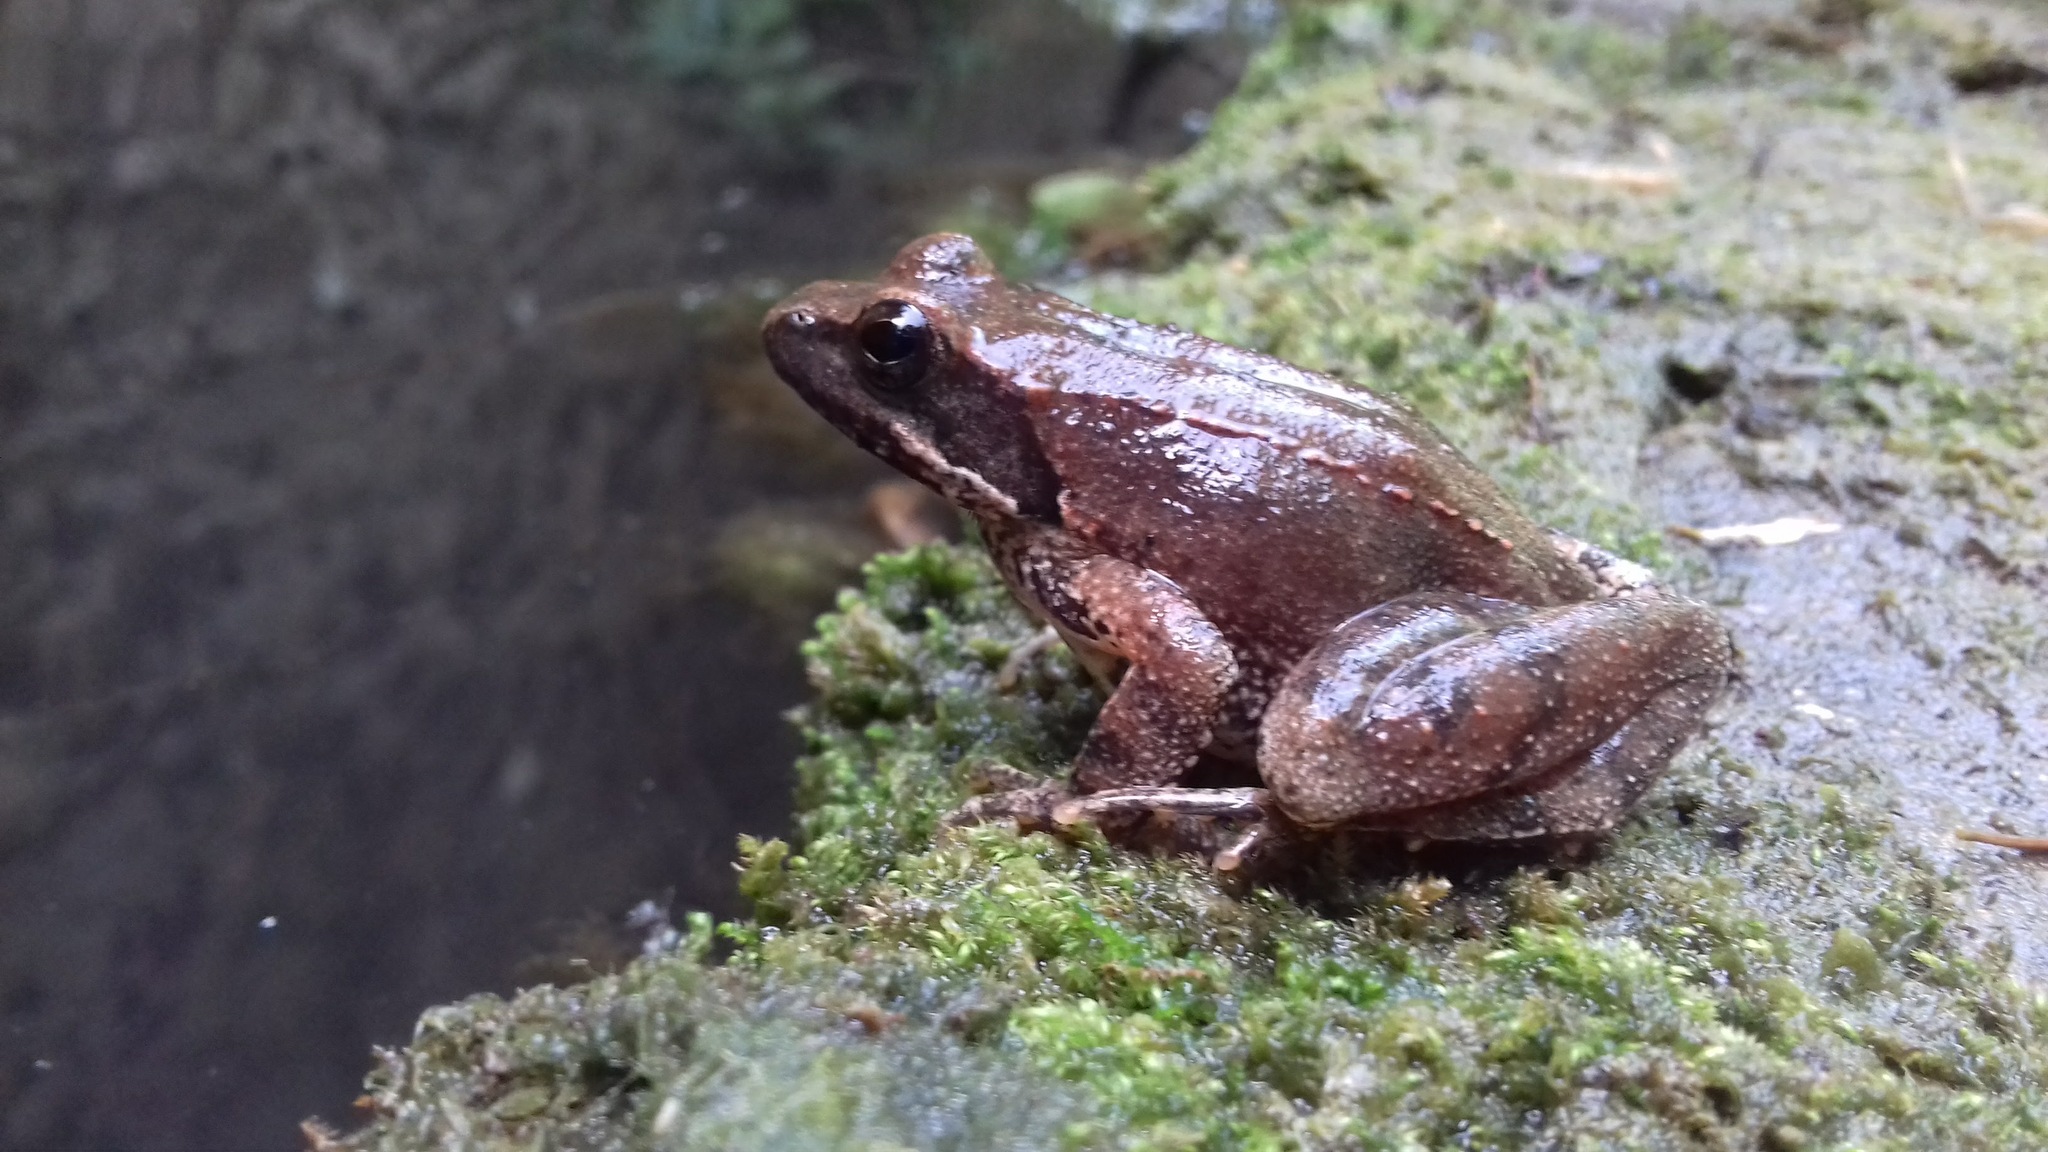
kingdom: Animalia
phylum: Chordata
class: Amphibia
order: Anura
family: Ranidae
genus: Rana
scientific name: Rana italica
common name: Italian stream frog
